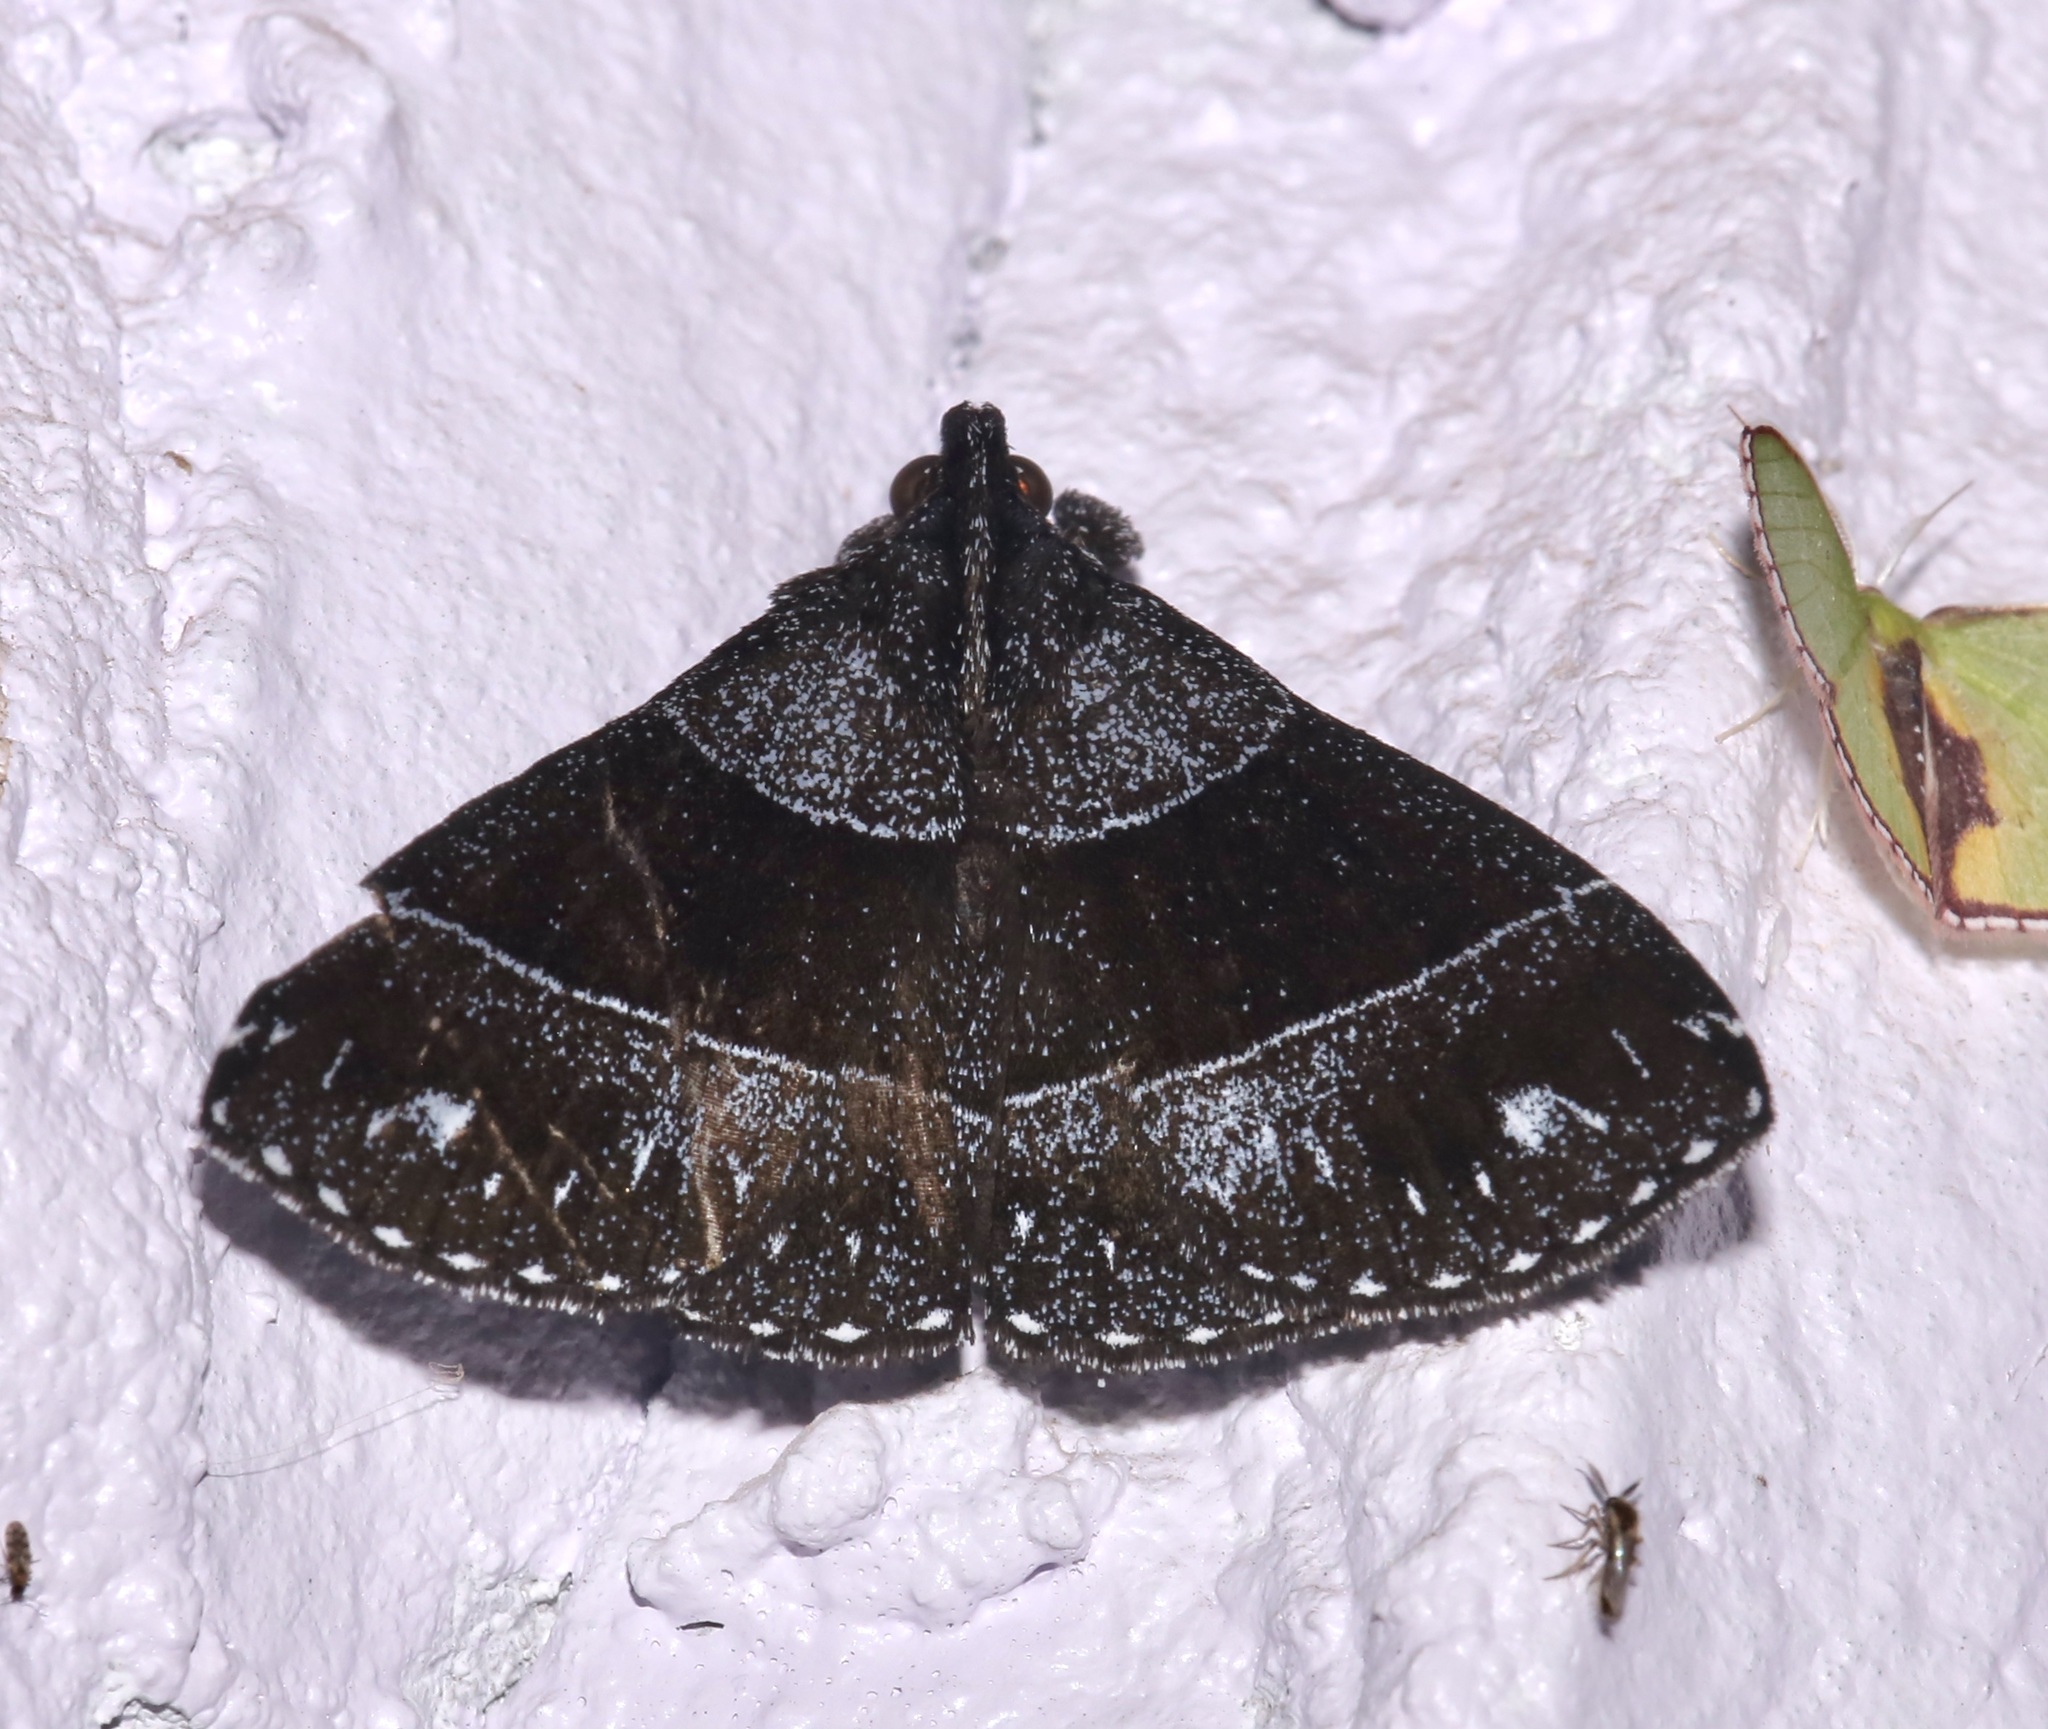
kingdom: Animalia
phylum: Arthropoda
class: Insecta
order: Lepidoptera
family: Erebidae
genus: Rejectaria
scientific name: Rejectaria atrax
